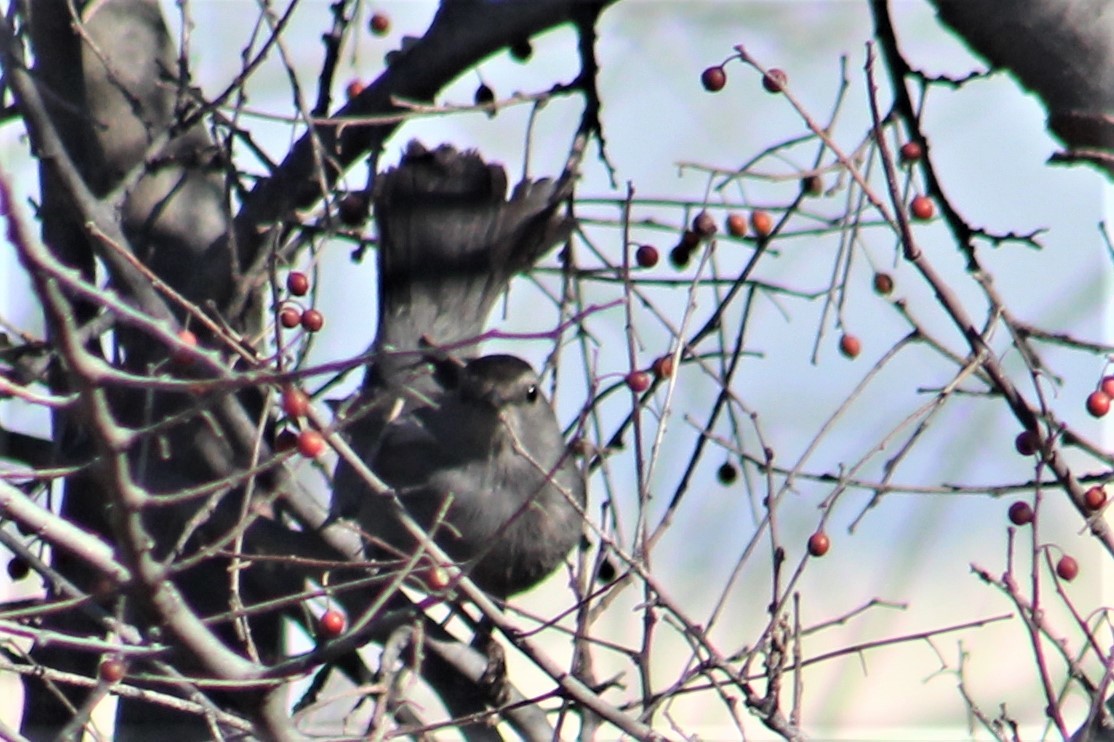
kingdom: Animalia
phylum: Chordata
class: Aves
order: Passeriformes
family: Mimidae
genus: Dumetella
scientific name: Dumetella carolinensis
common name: Gray catbird
